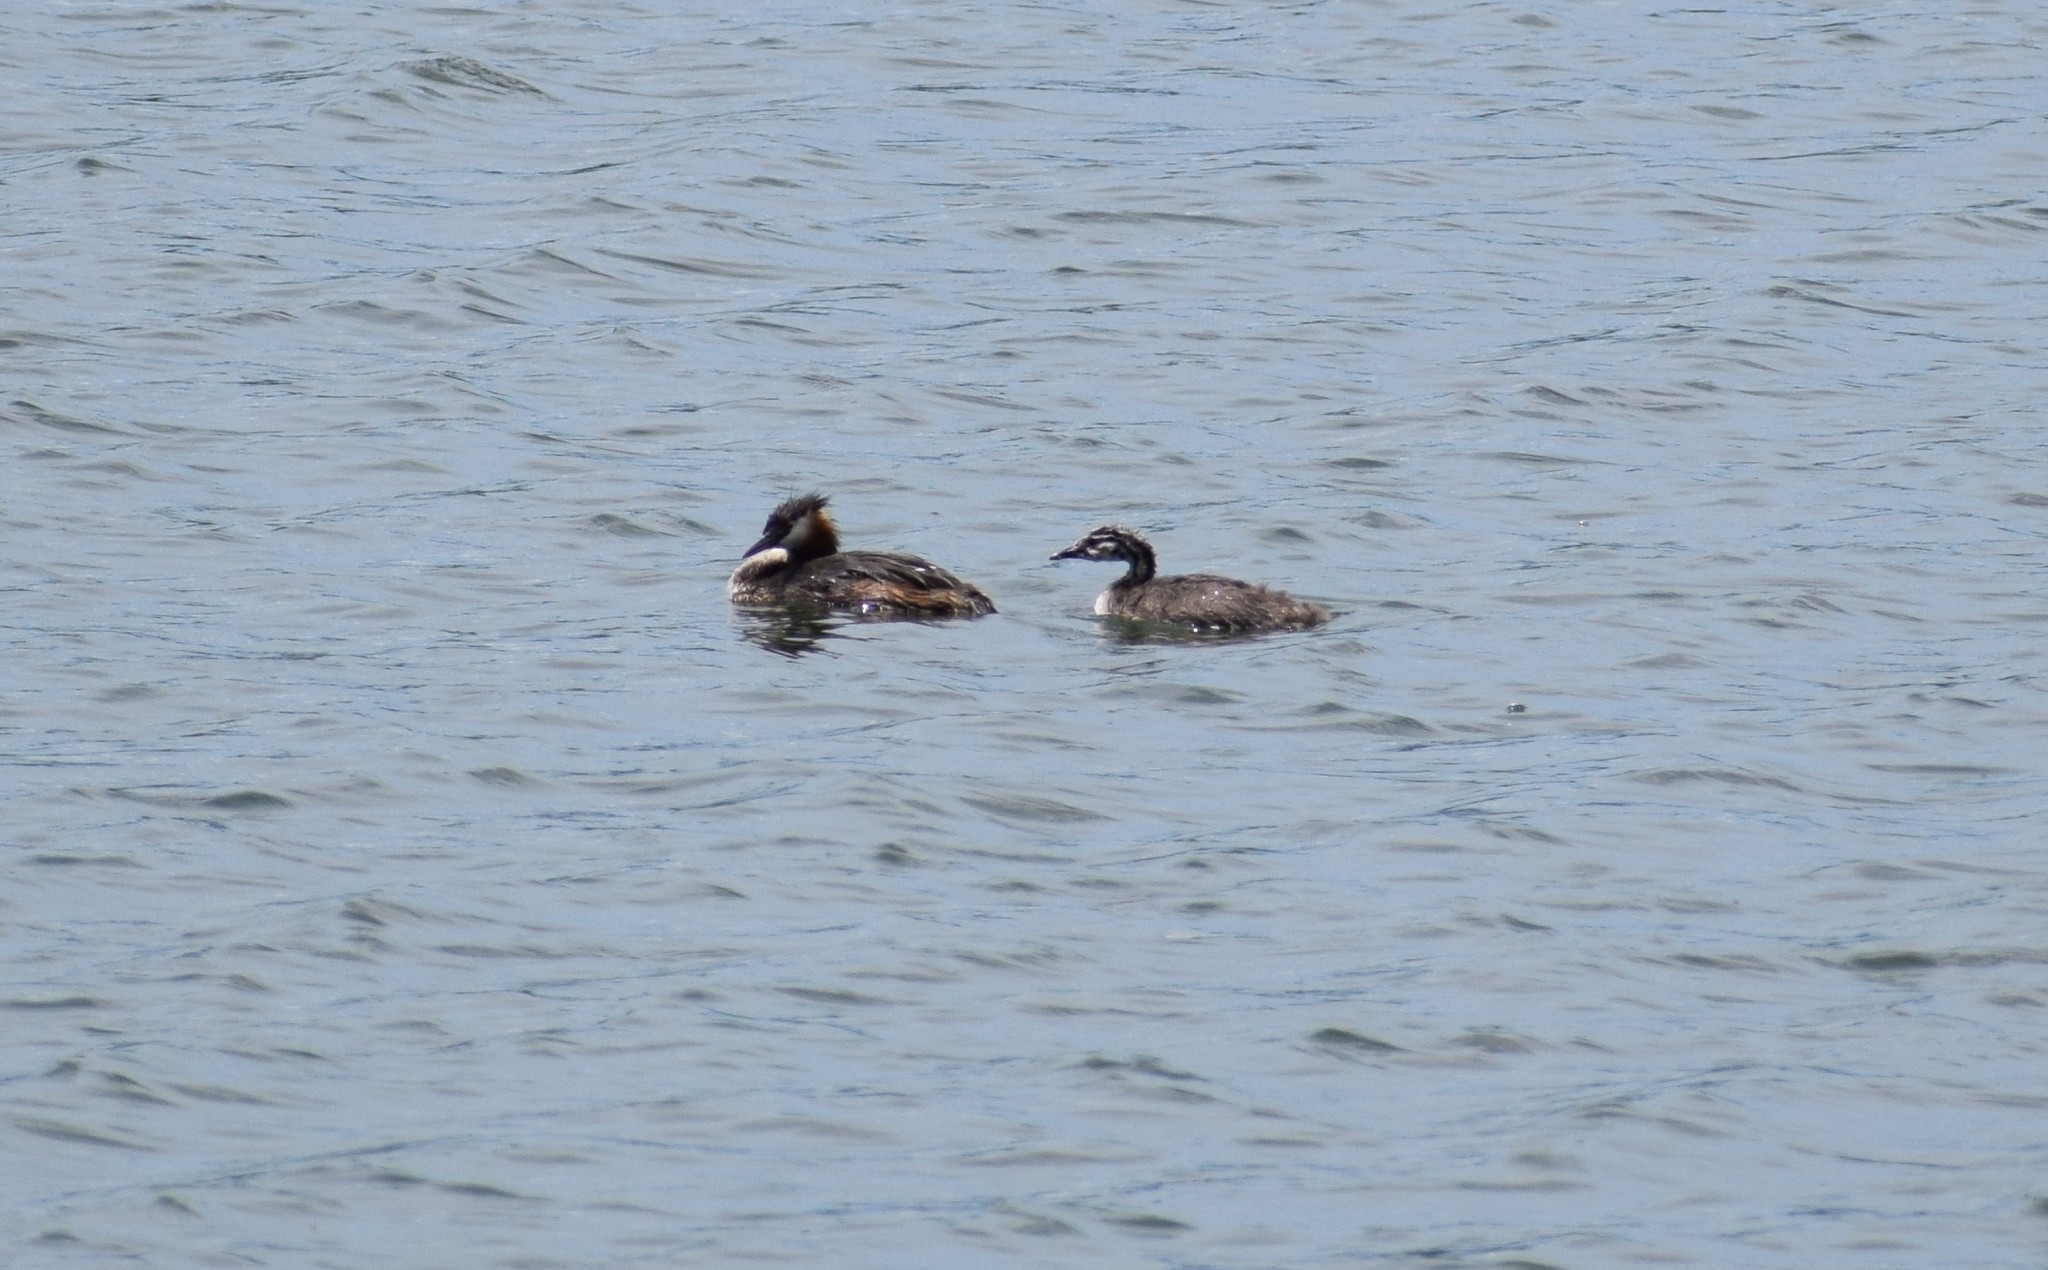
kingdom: Animalia
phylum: Chordata
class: Aves
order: Podicipediformes
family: Podicipedidae
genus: Podiceps
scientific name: Podiceps cristatus
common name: Great crested grebe
